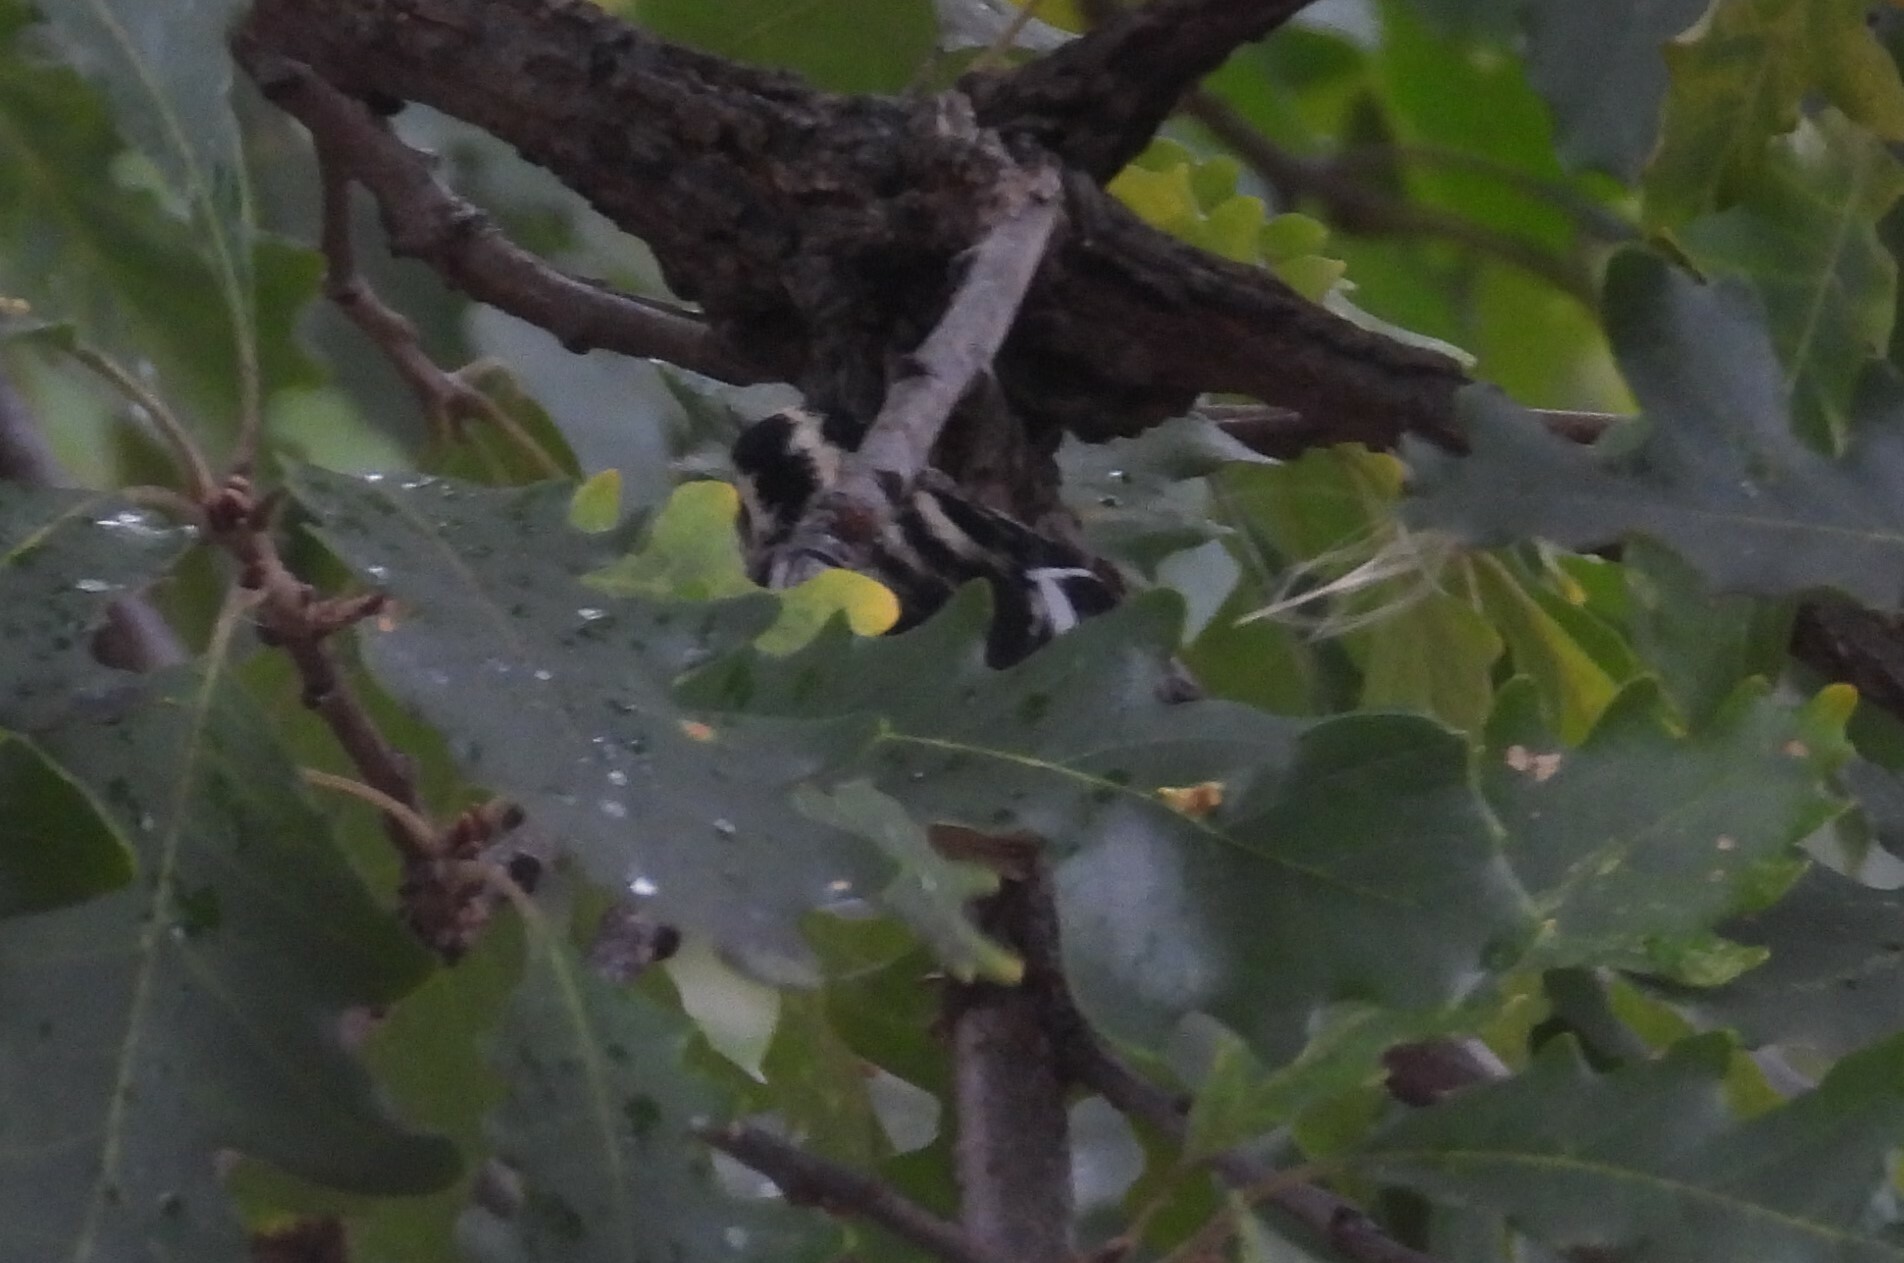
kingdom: Animalia
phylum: Chordata
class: Aves
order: Passeriformes
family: Parulidae
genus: Mniotilta
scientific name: Mniotilta varia
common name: Black-and-white warbler
